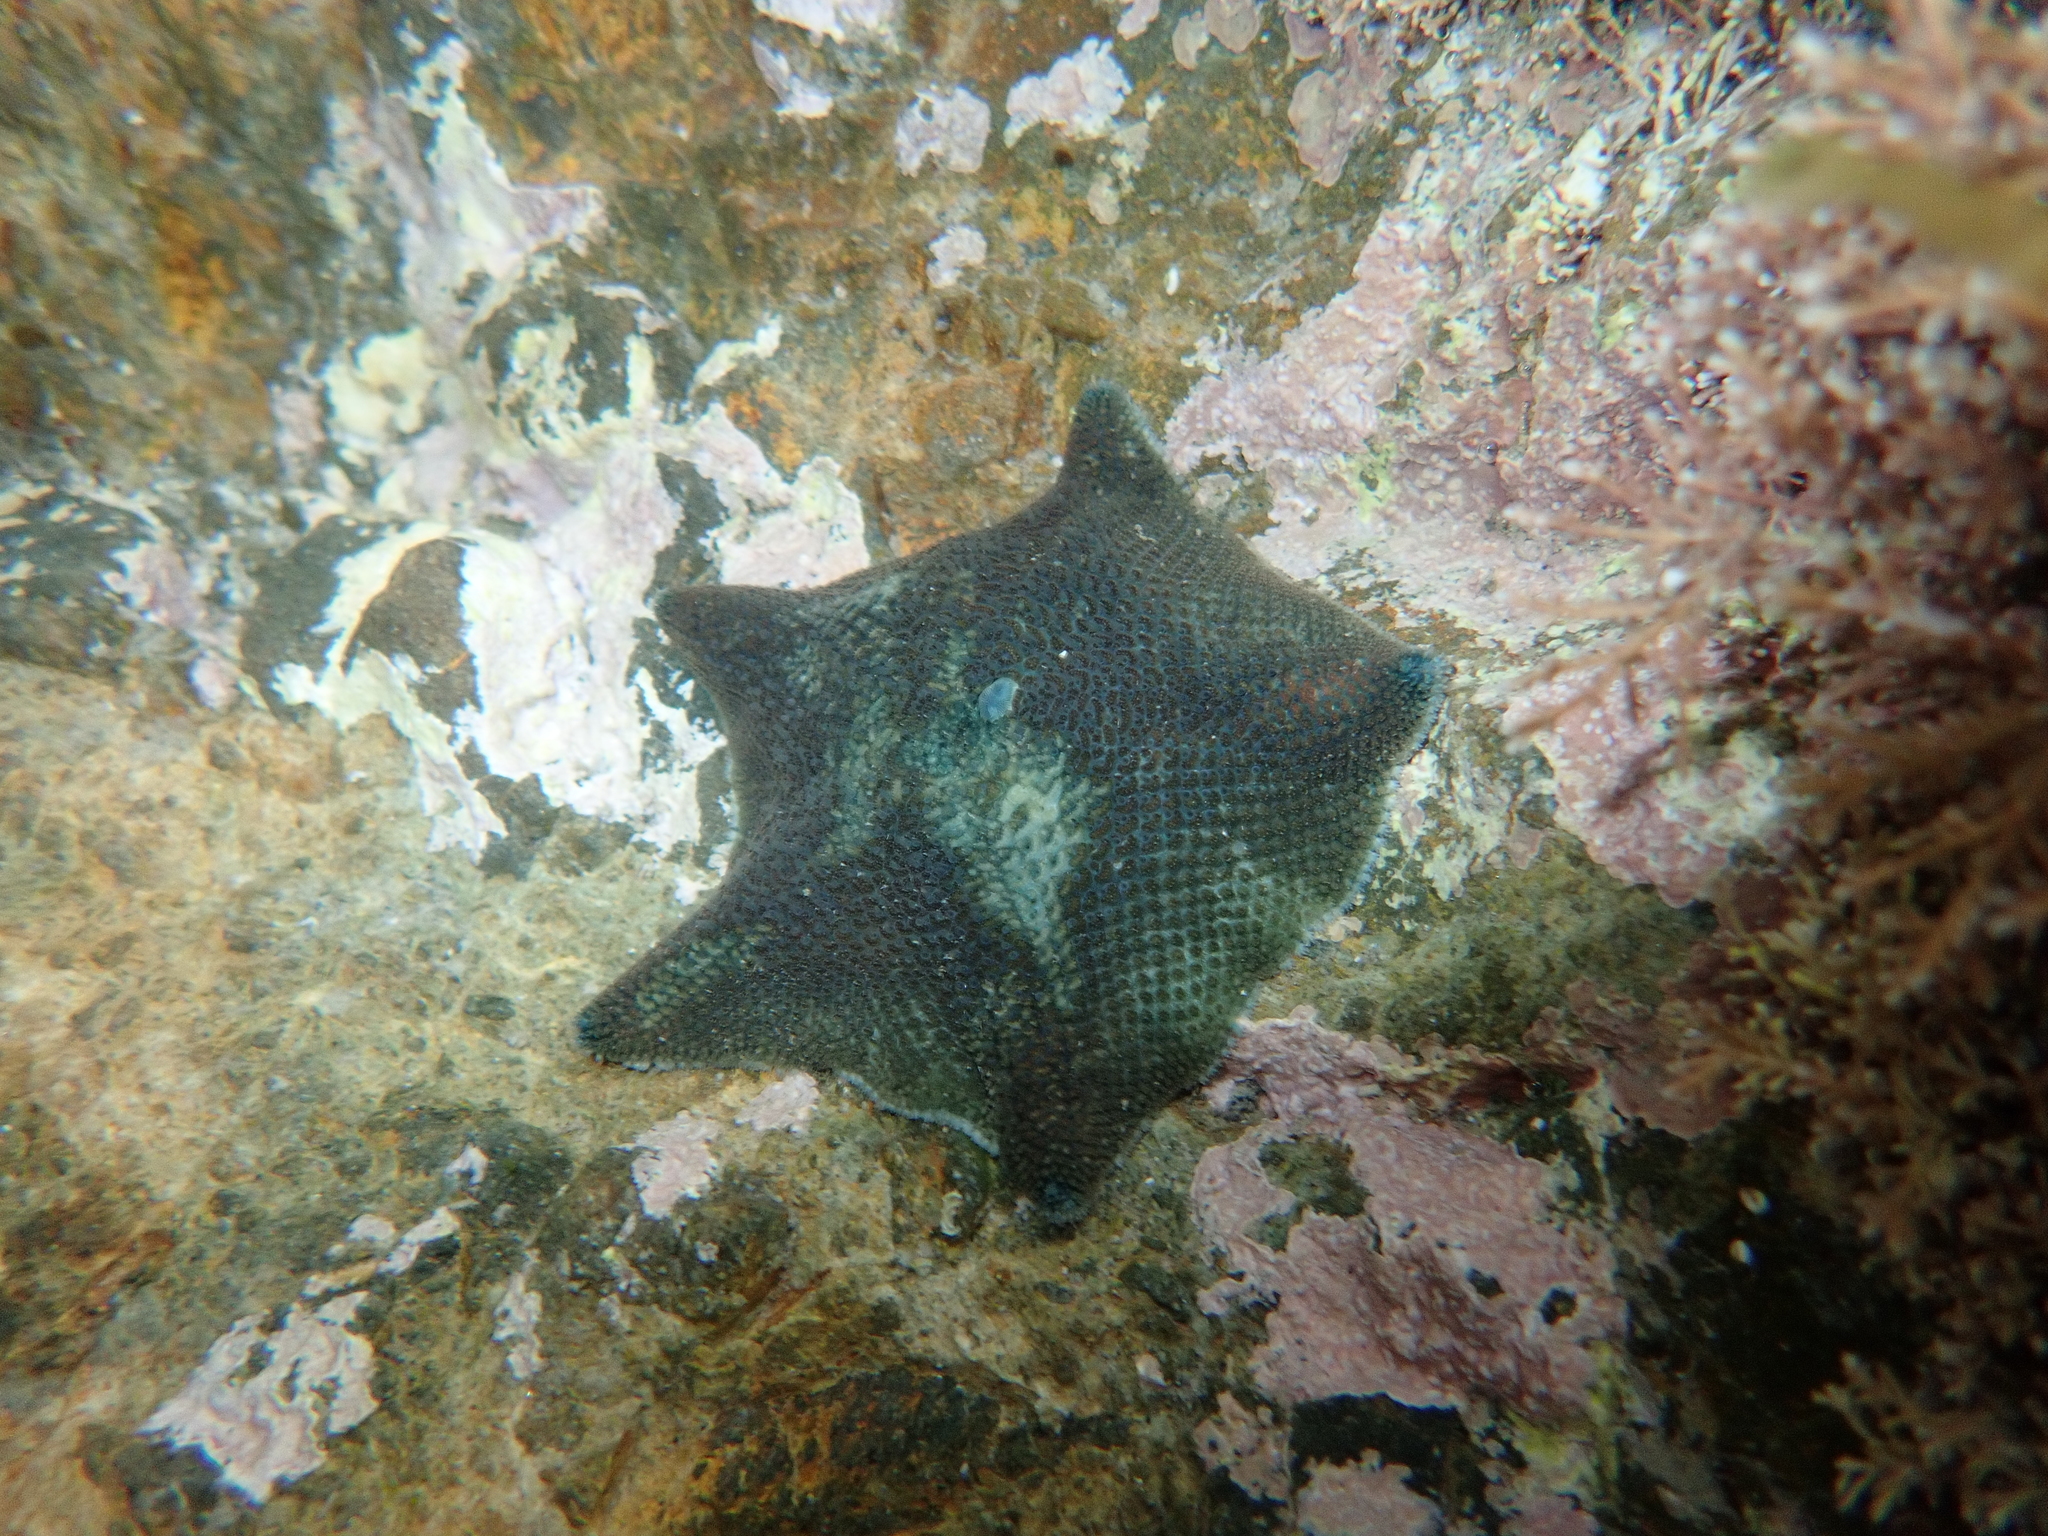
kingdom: Animalia
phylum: Echinodermata
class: Asteroidea
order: Valvatida
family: Asterinidae
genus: Patiriella
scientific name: Patiriella regularis
